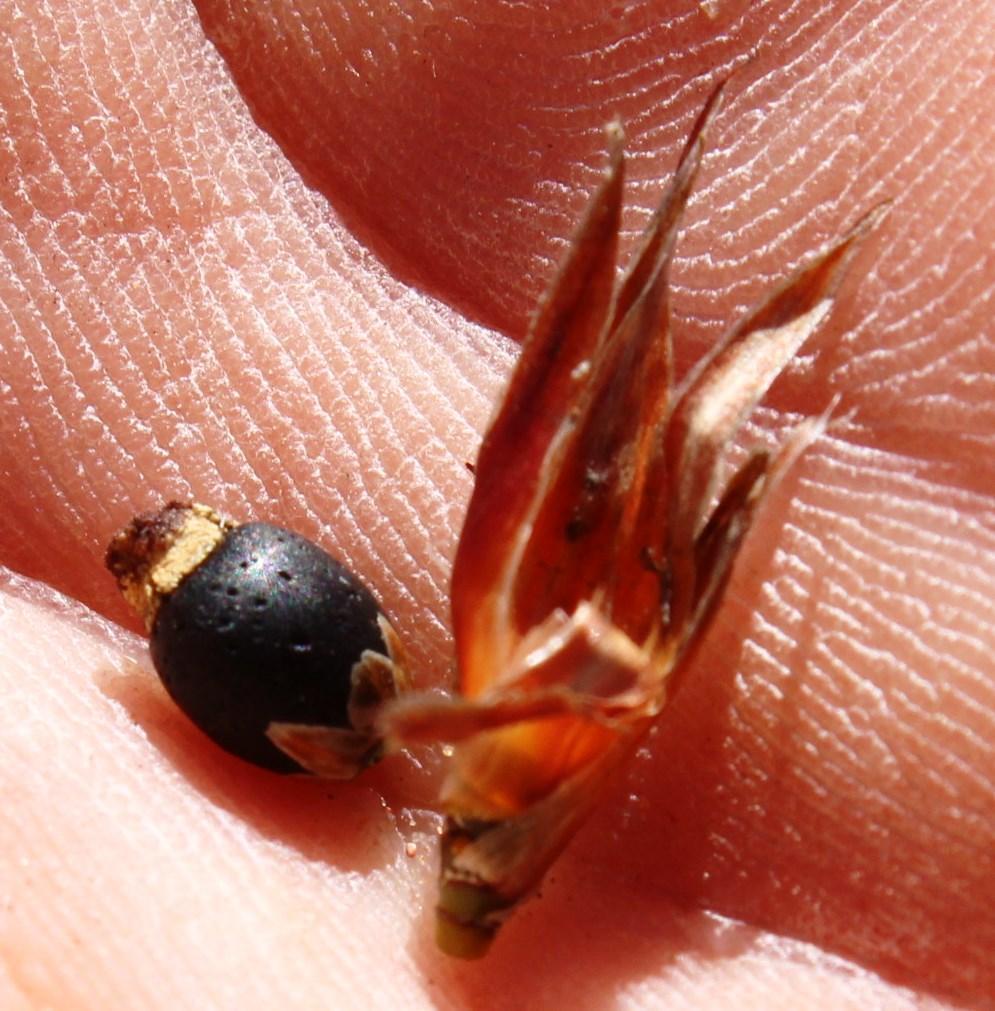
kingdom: Plantae
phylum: Tracheophyta
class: Liliopsida
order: Poales
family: Restionaceae
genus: Willdenowia
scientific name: Willdenowia incurvata
